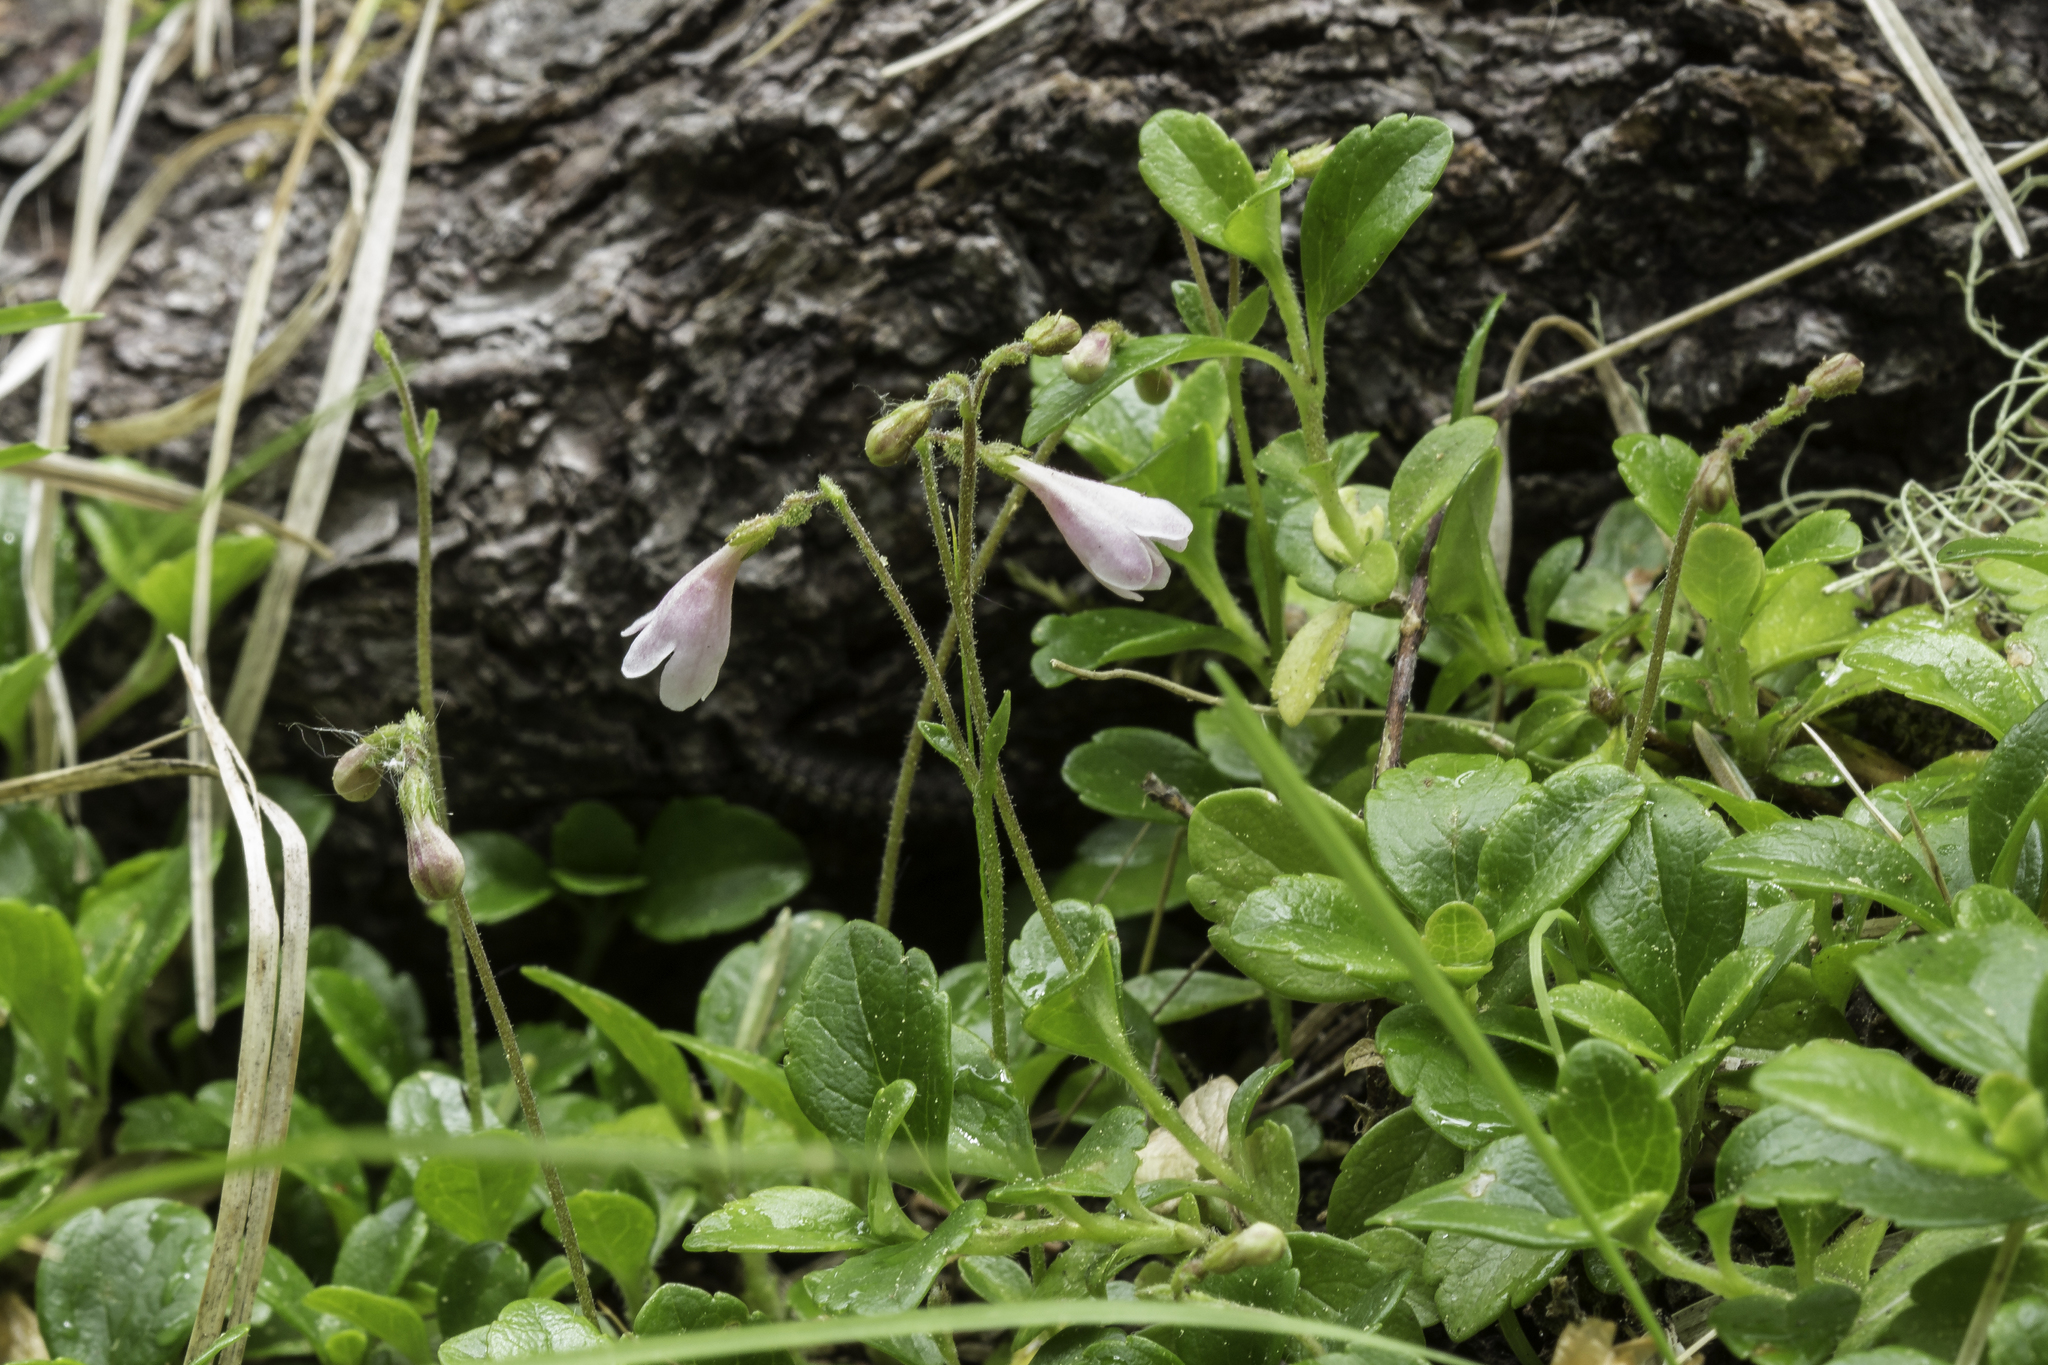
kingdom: Plantae
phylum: Tracheophyta
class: Magnoliopsida
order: Dipsacales
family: Caprifoliaceae
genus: Linnaea
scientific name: Linnaea borealis
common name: Twinflower
